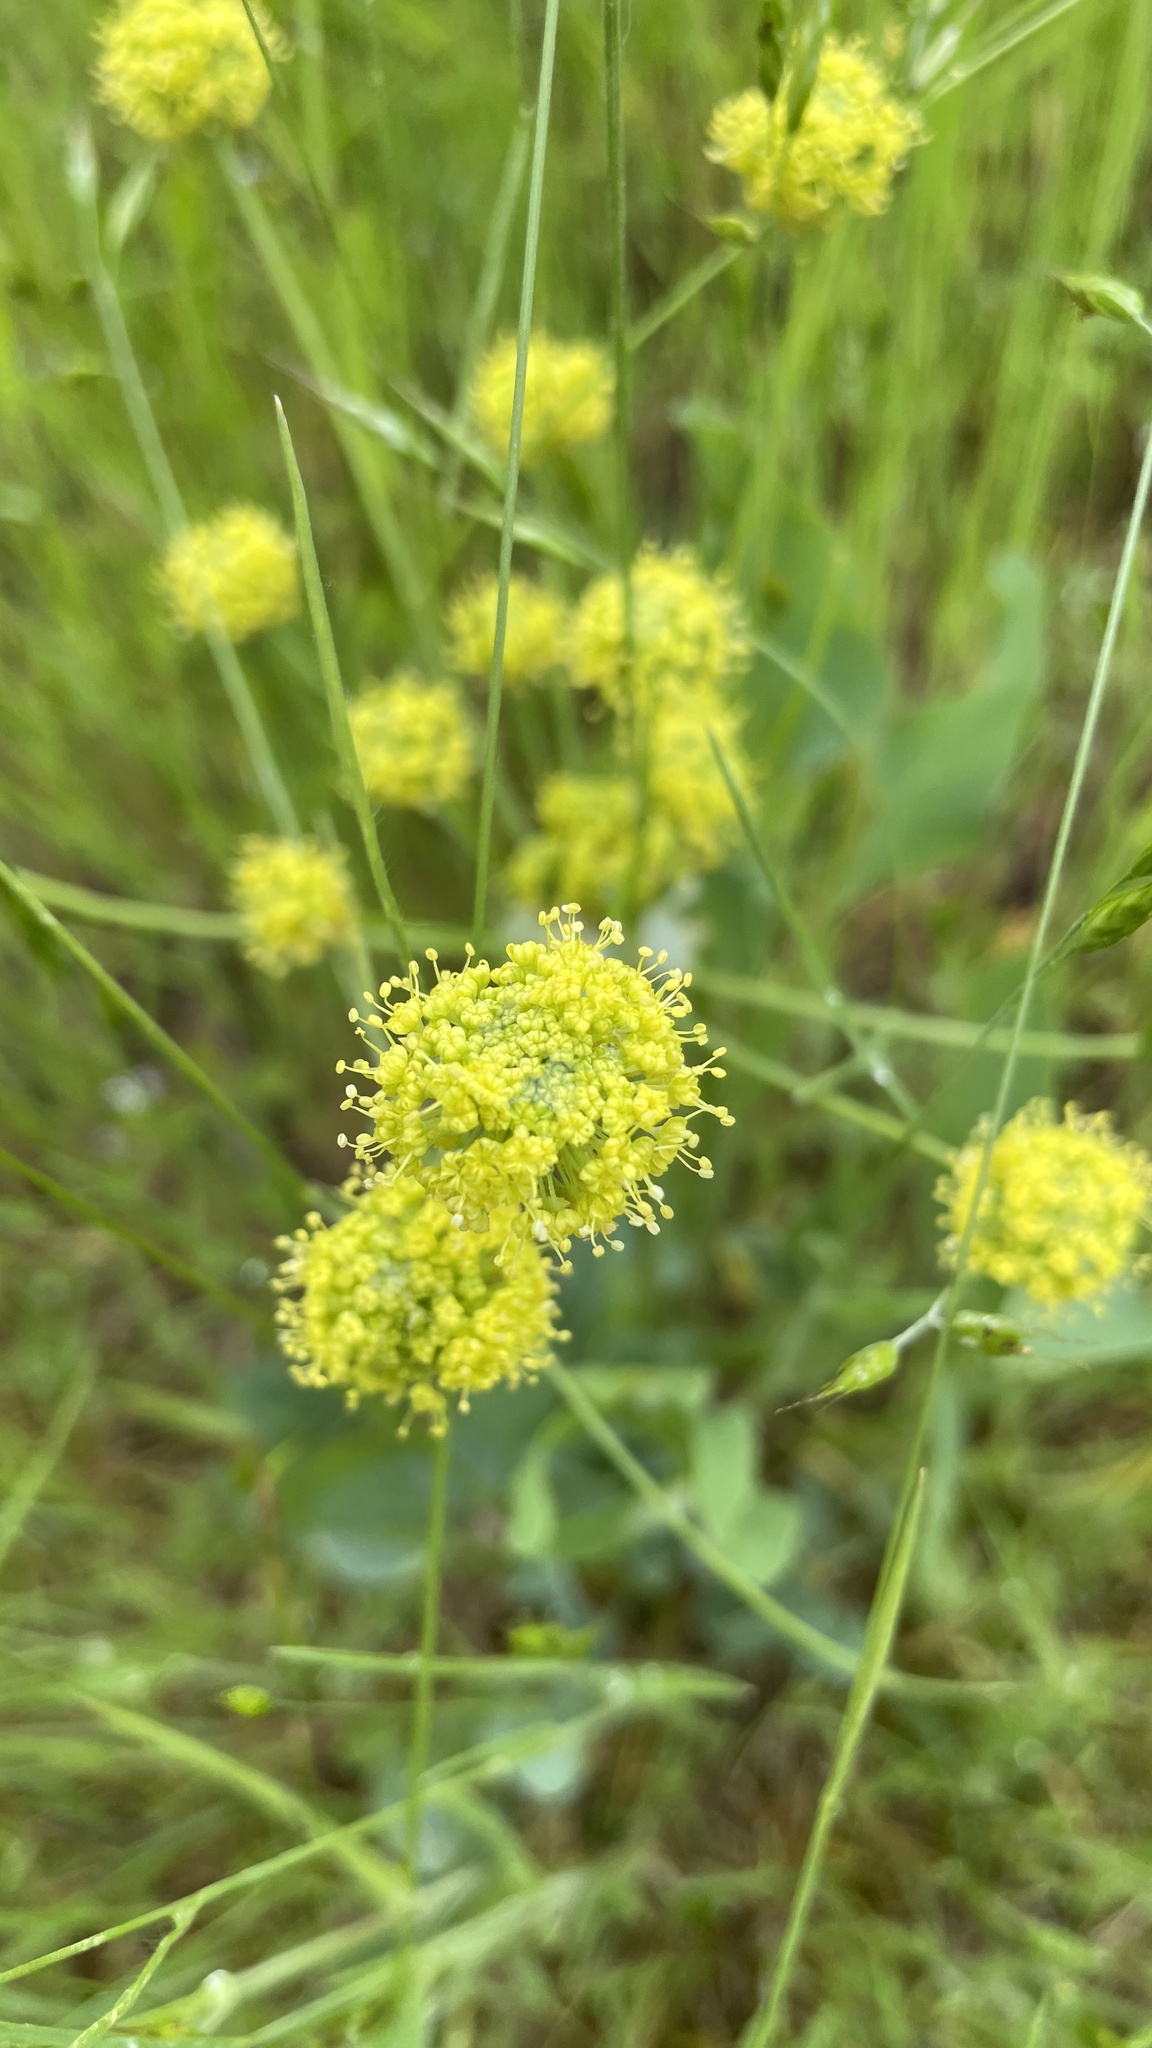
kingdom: Plantae
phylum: Tracheophyta
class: Magnoliopsida
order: Apiales
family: Apiaceae
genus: Lomatium
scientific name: Lomatium nudicaule
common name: Pestle lomatium
